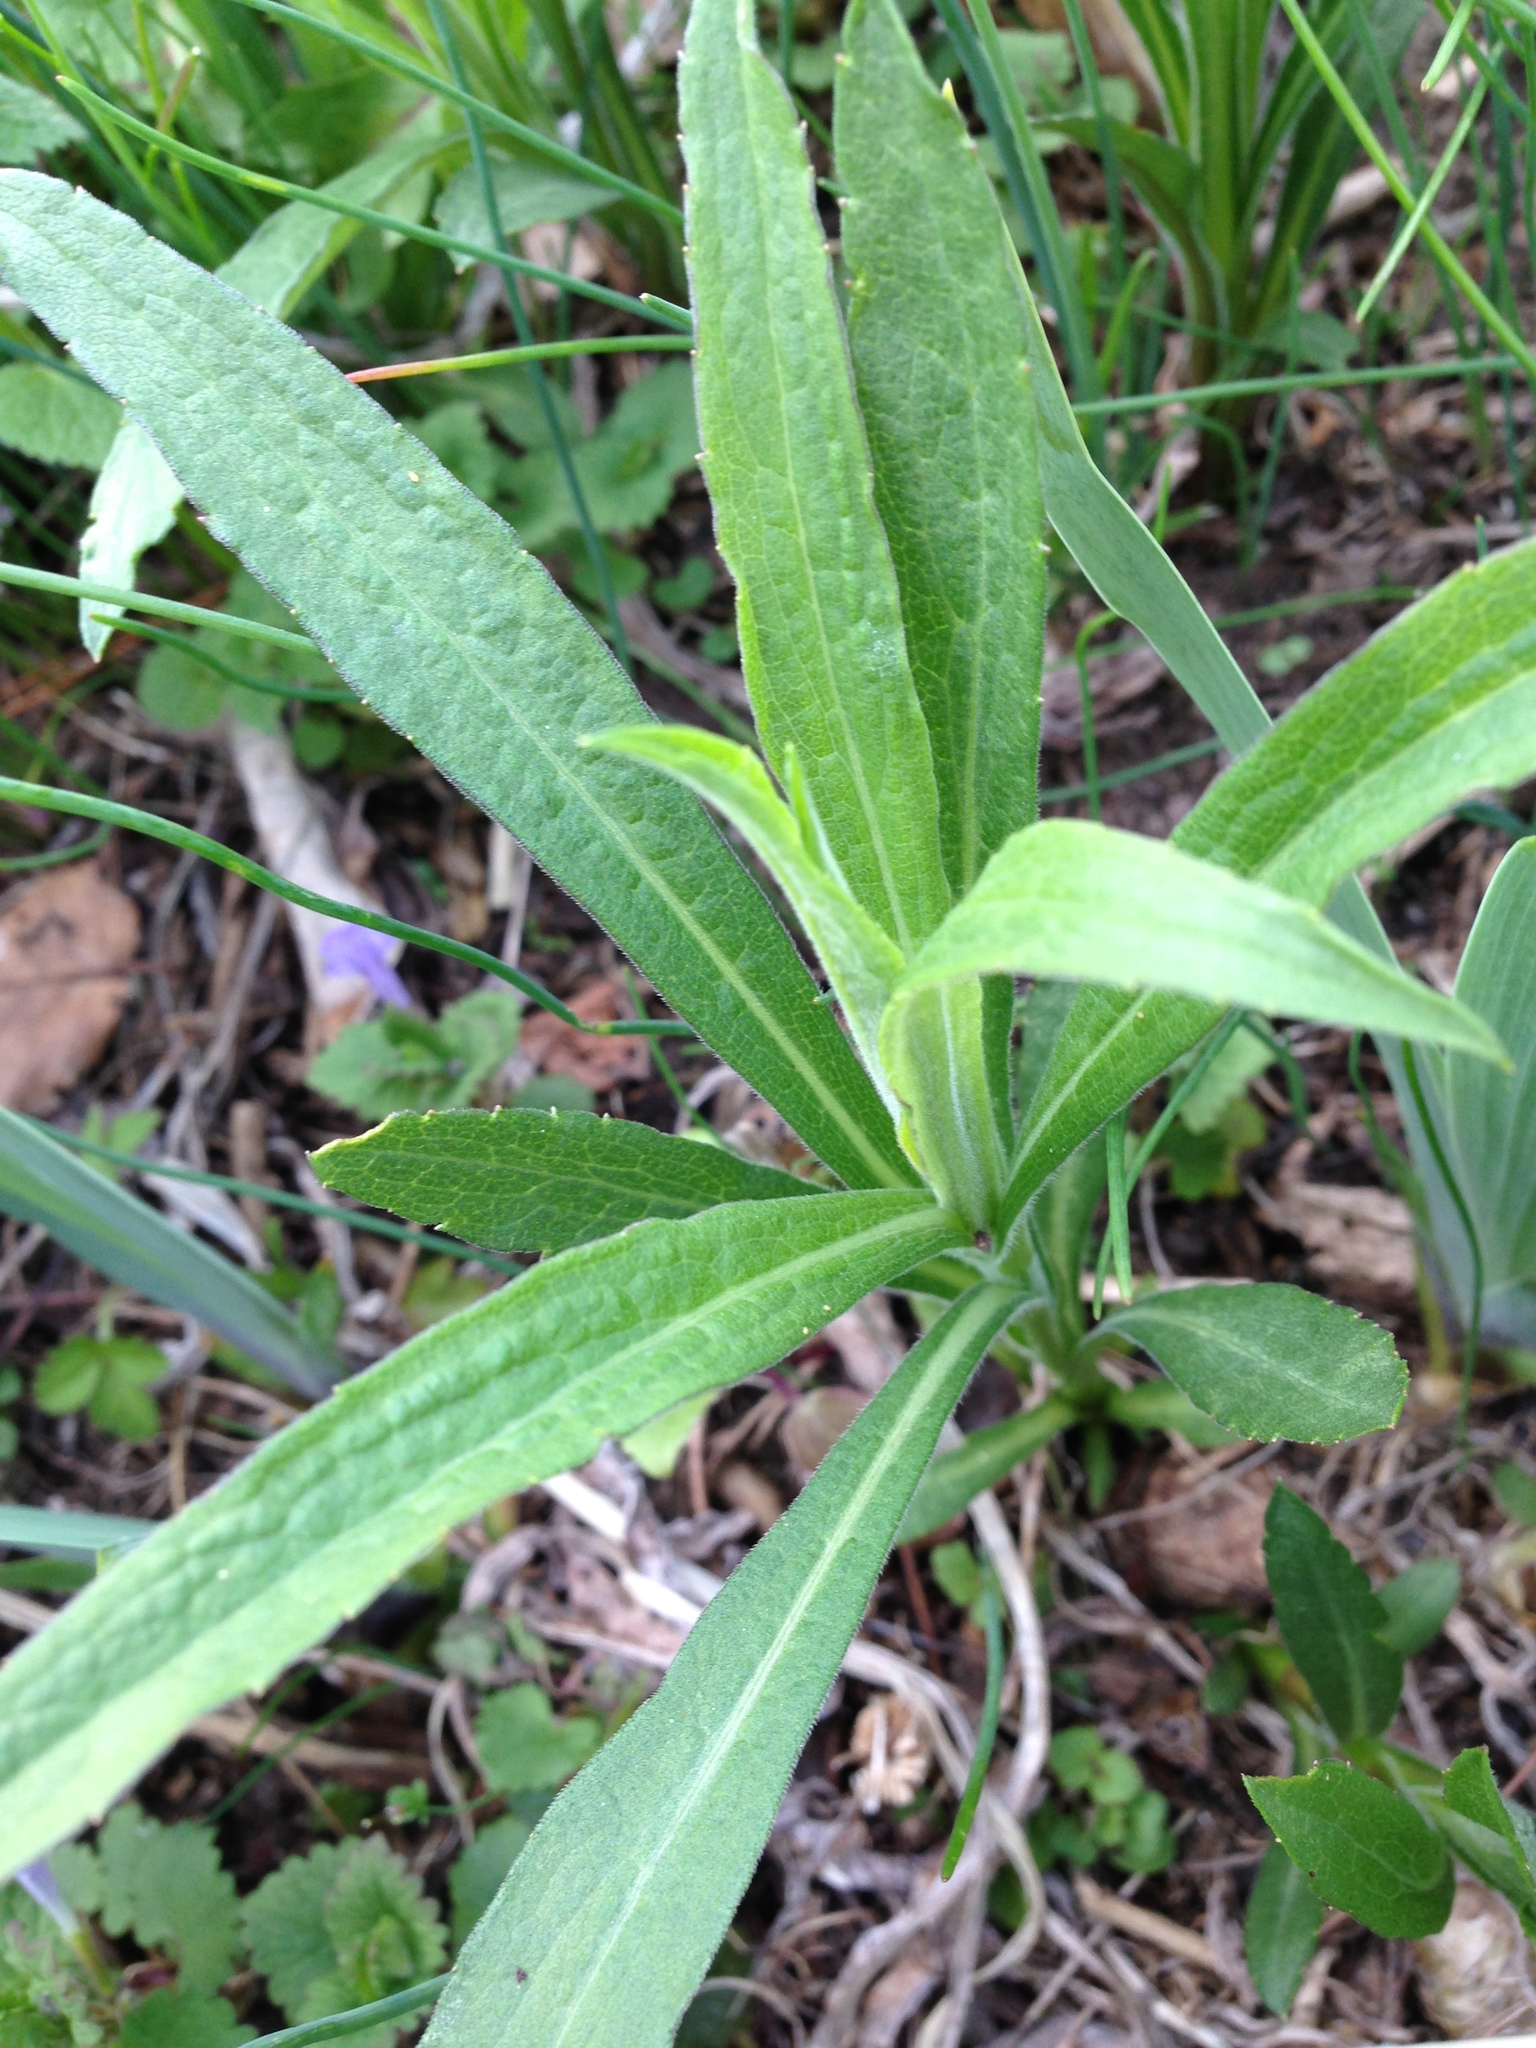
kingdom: Plantae
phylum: Tracheophyta
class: Magnoliopsida
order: Asterales
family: Asteraceae
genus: Solidago
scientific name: Solidago altissima
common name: Late goldenrod
